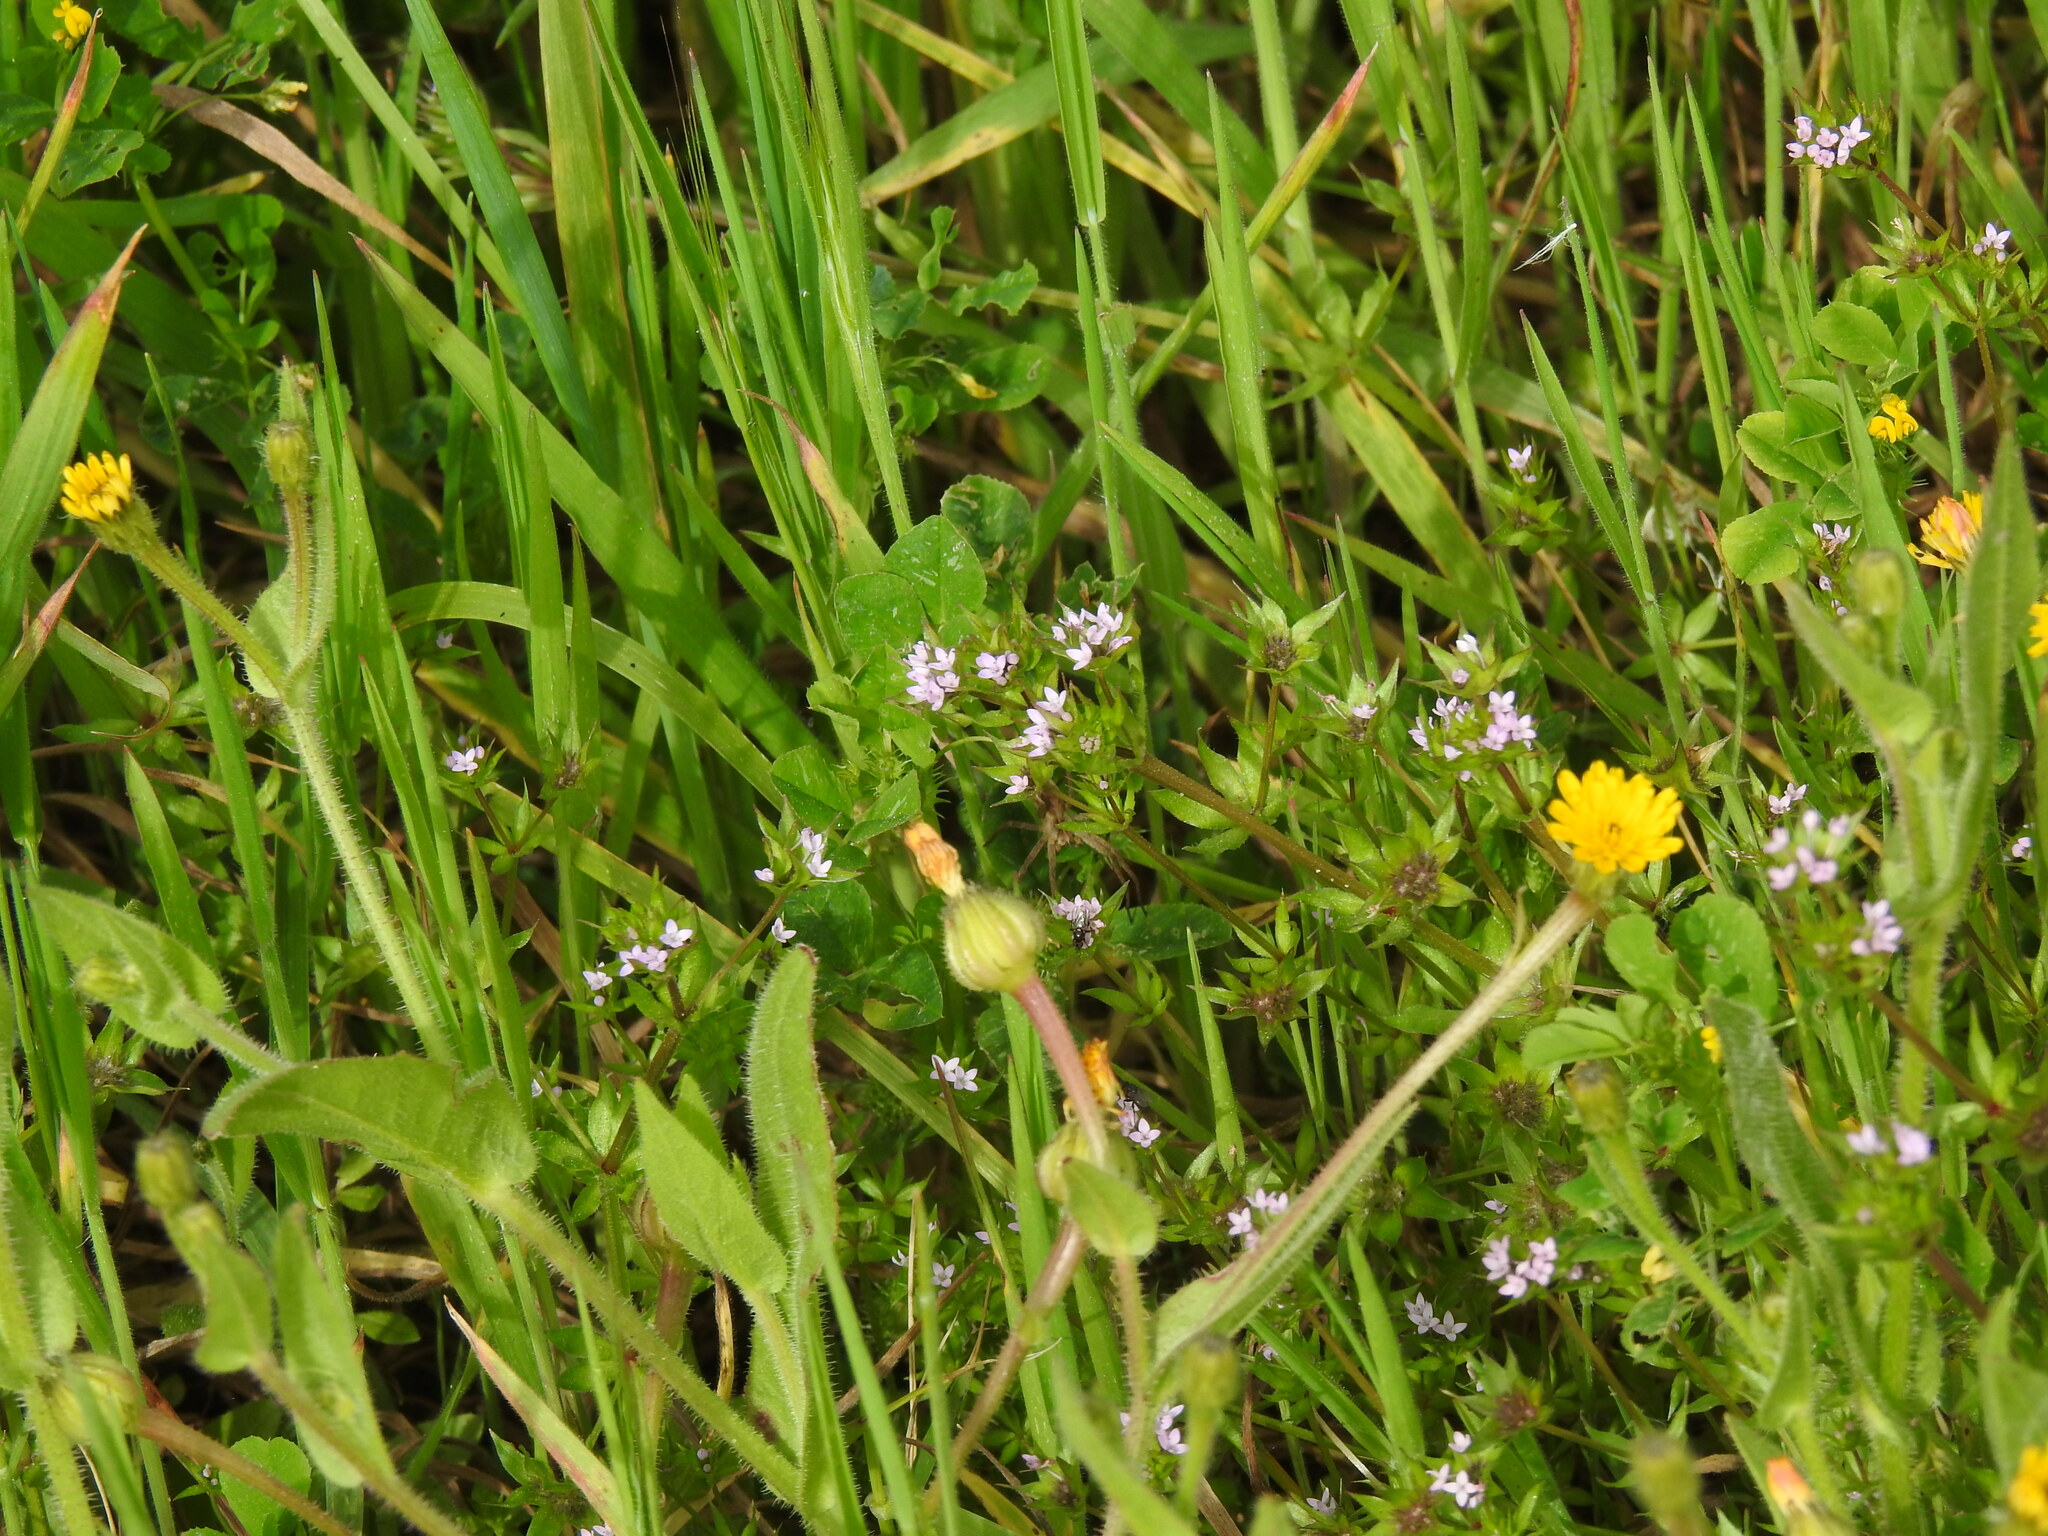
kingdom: Plantae
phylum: Tracheophyta
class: Magnoliopsida
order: Gentianales
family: Rubiaceae
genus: Sherardia
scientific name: Sherardia arvensis
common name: Field madder
